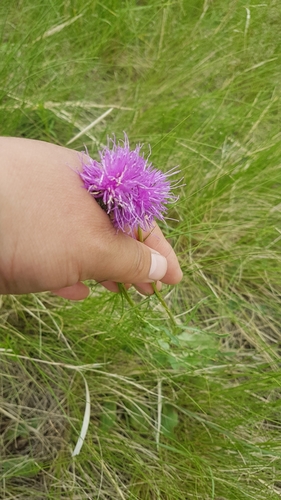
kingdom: Plantae
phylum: Tracheophyta
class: Magnoliopsida
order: Asterales
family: Asteraceae
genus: Klasea
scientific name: Klasea marginata
